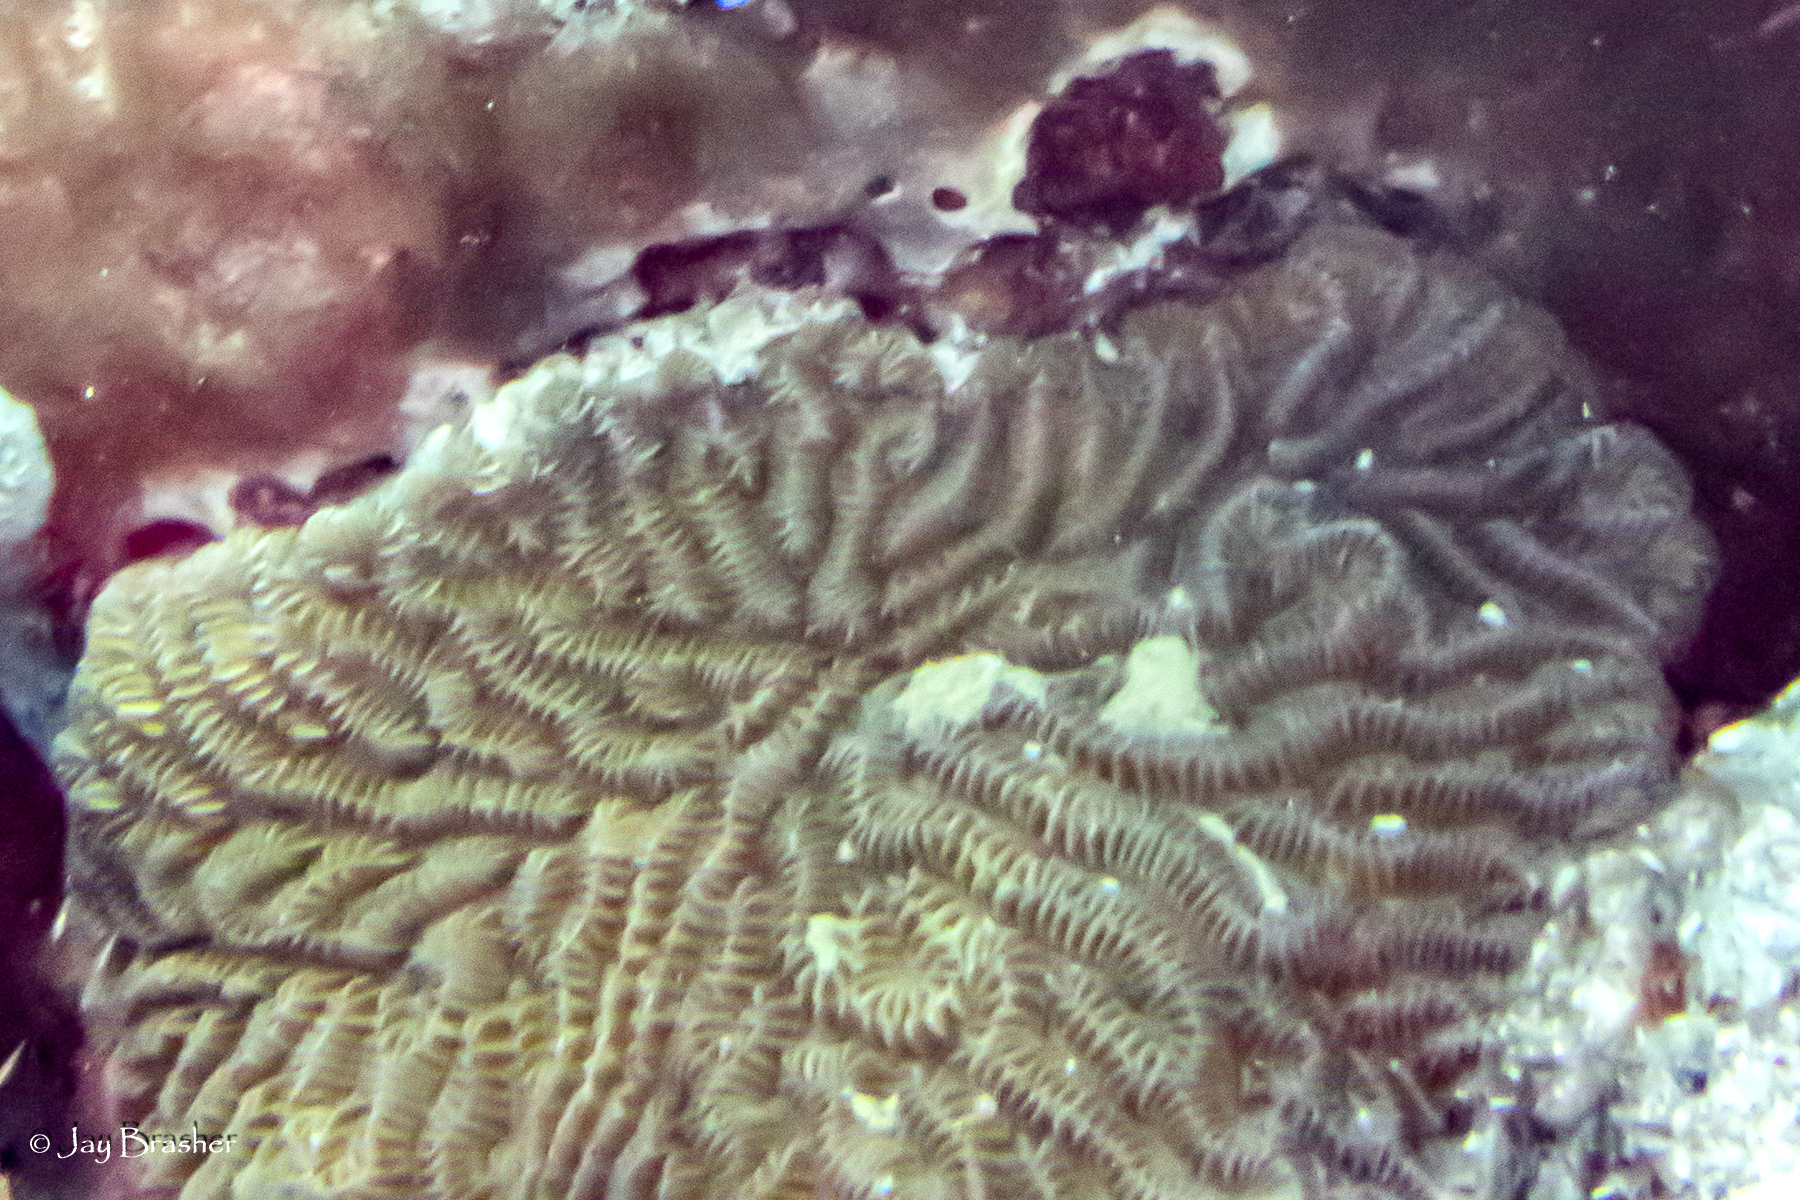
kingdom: Animalia
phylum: Cnidaria
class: Anthozoa
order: Scleractinia
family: Meandrinidae
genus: Meandrina
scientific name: Meandrina meandrites
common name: Maze coral
